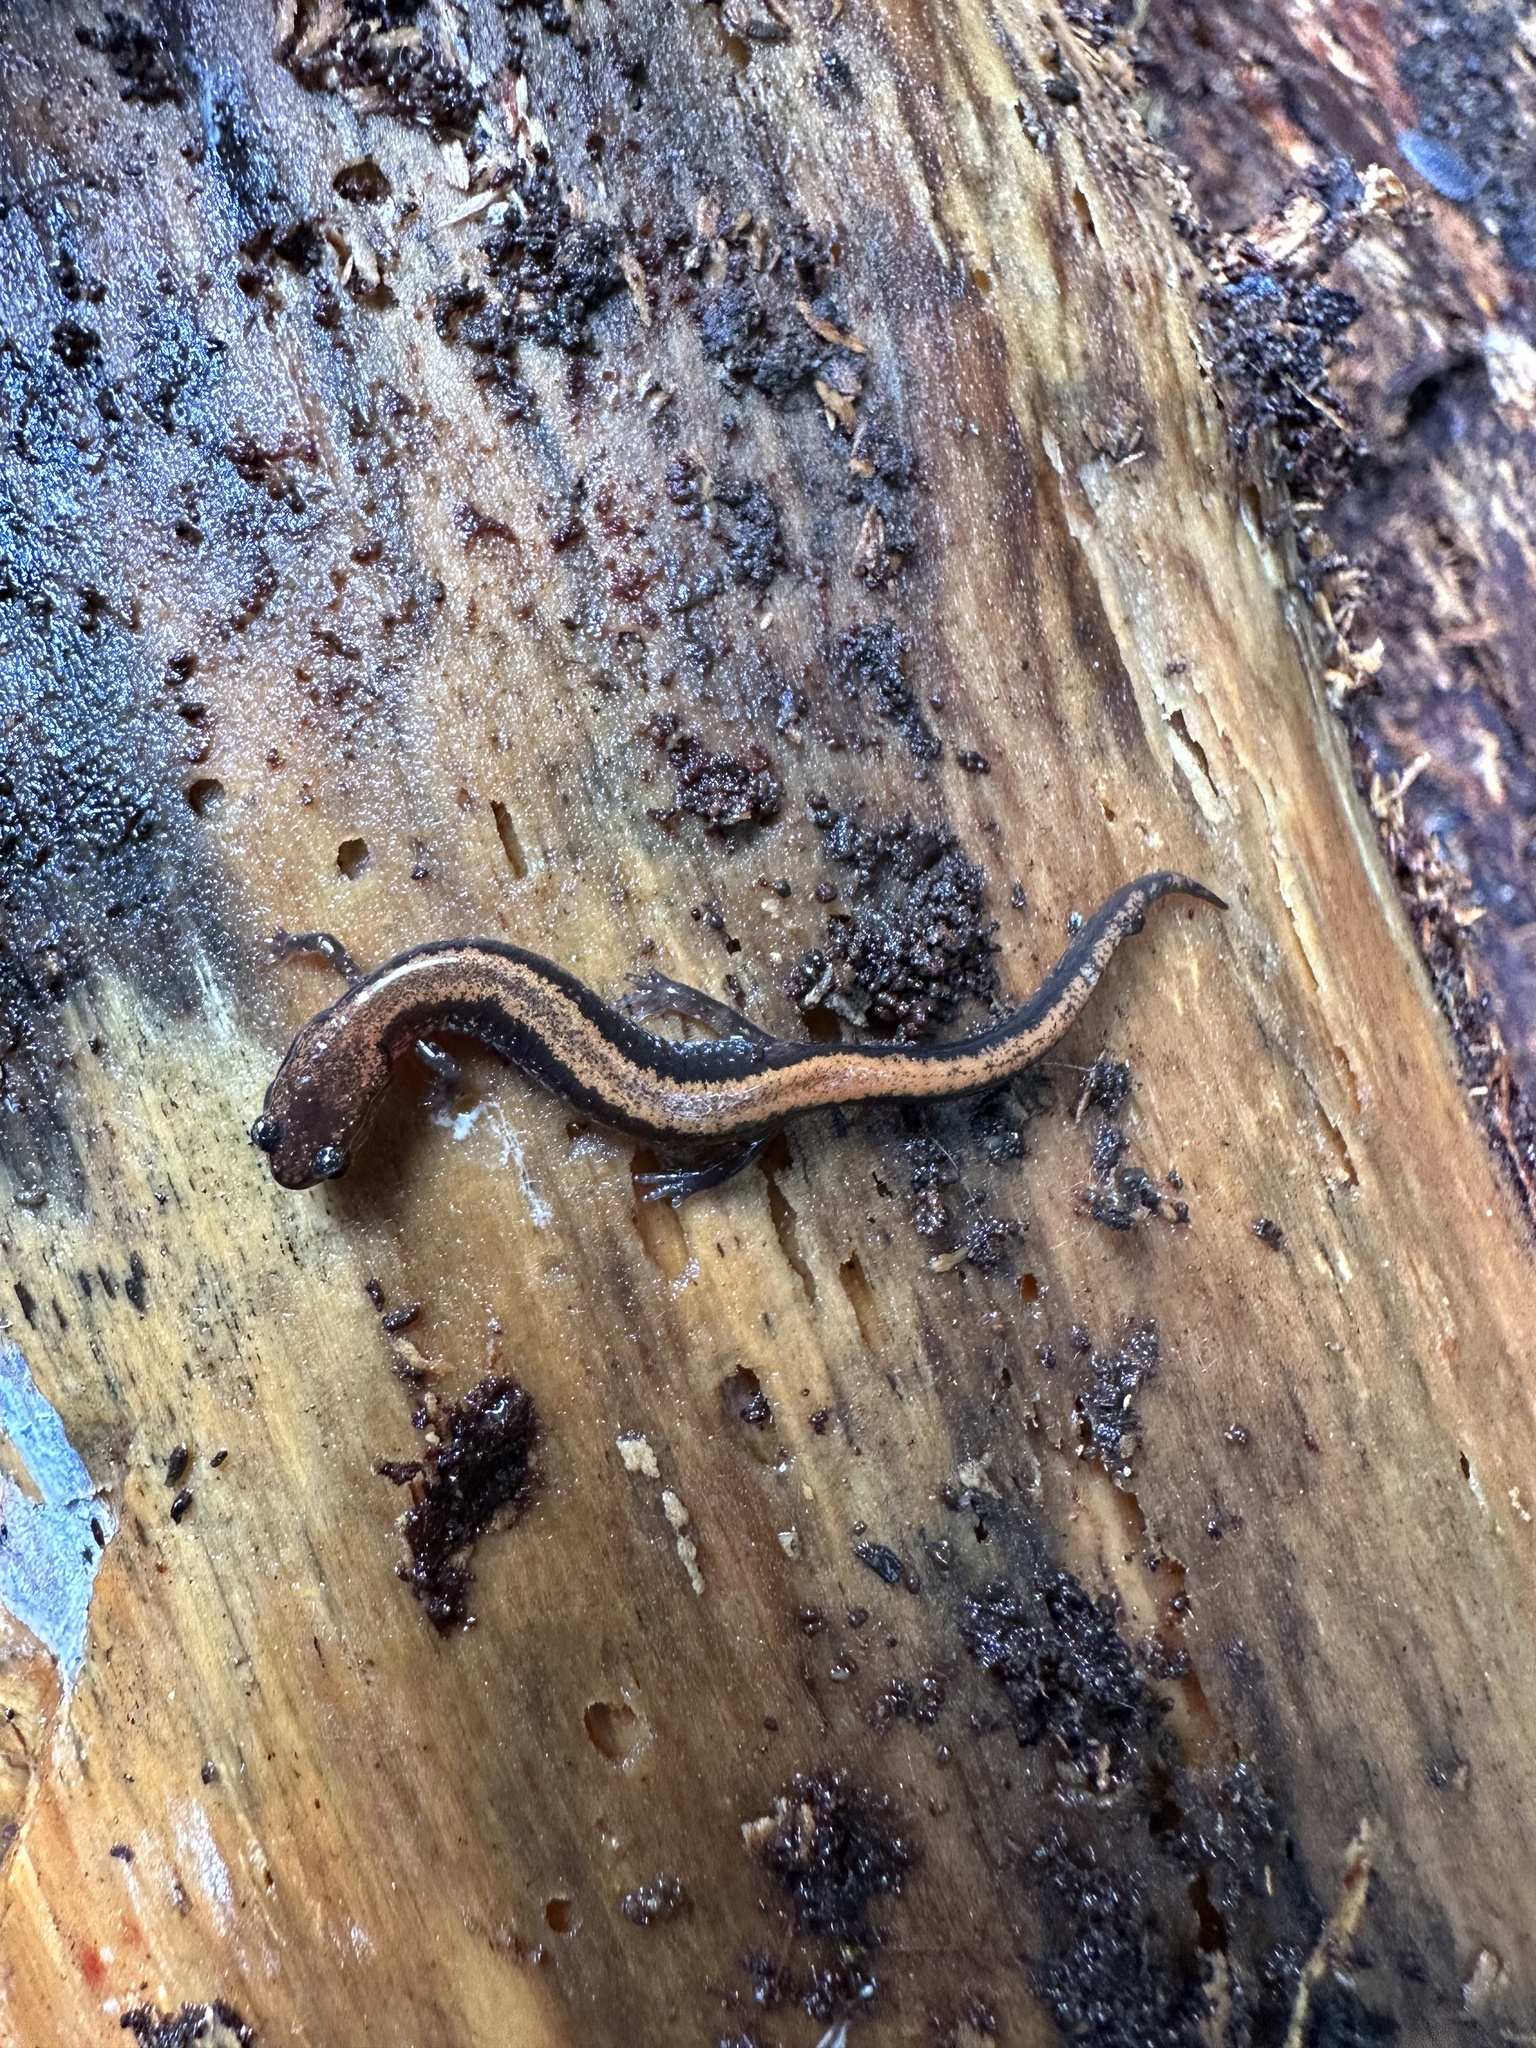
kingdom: Animalia
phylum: Chordata
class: Amphibia
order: Caudata
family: Plethodontidae
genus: Plethodon
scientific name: Plethodon cinereus
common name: Redback salamander
